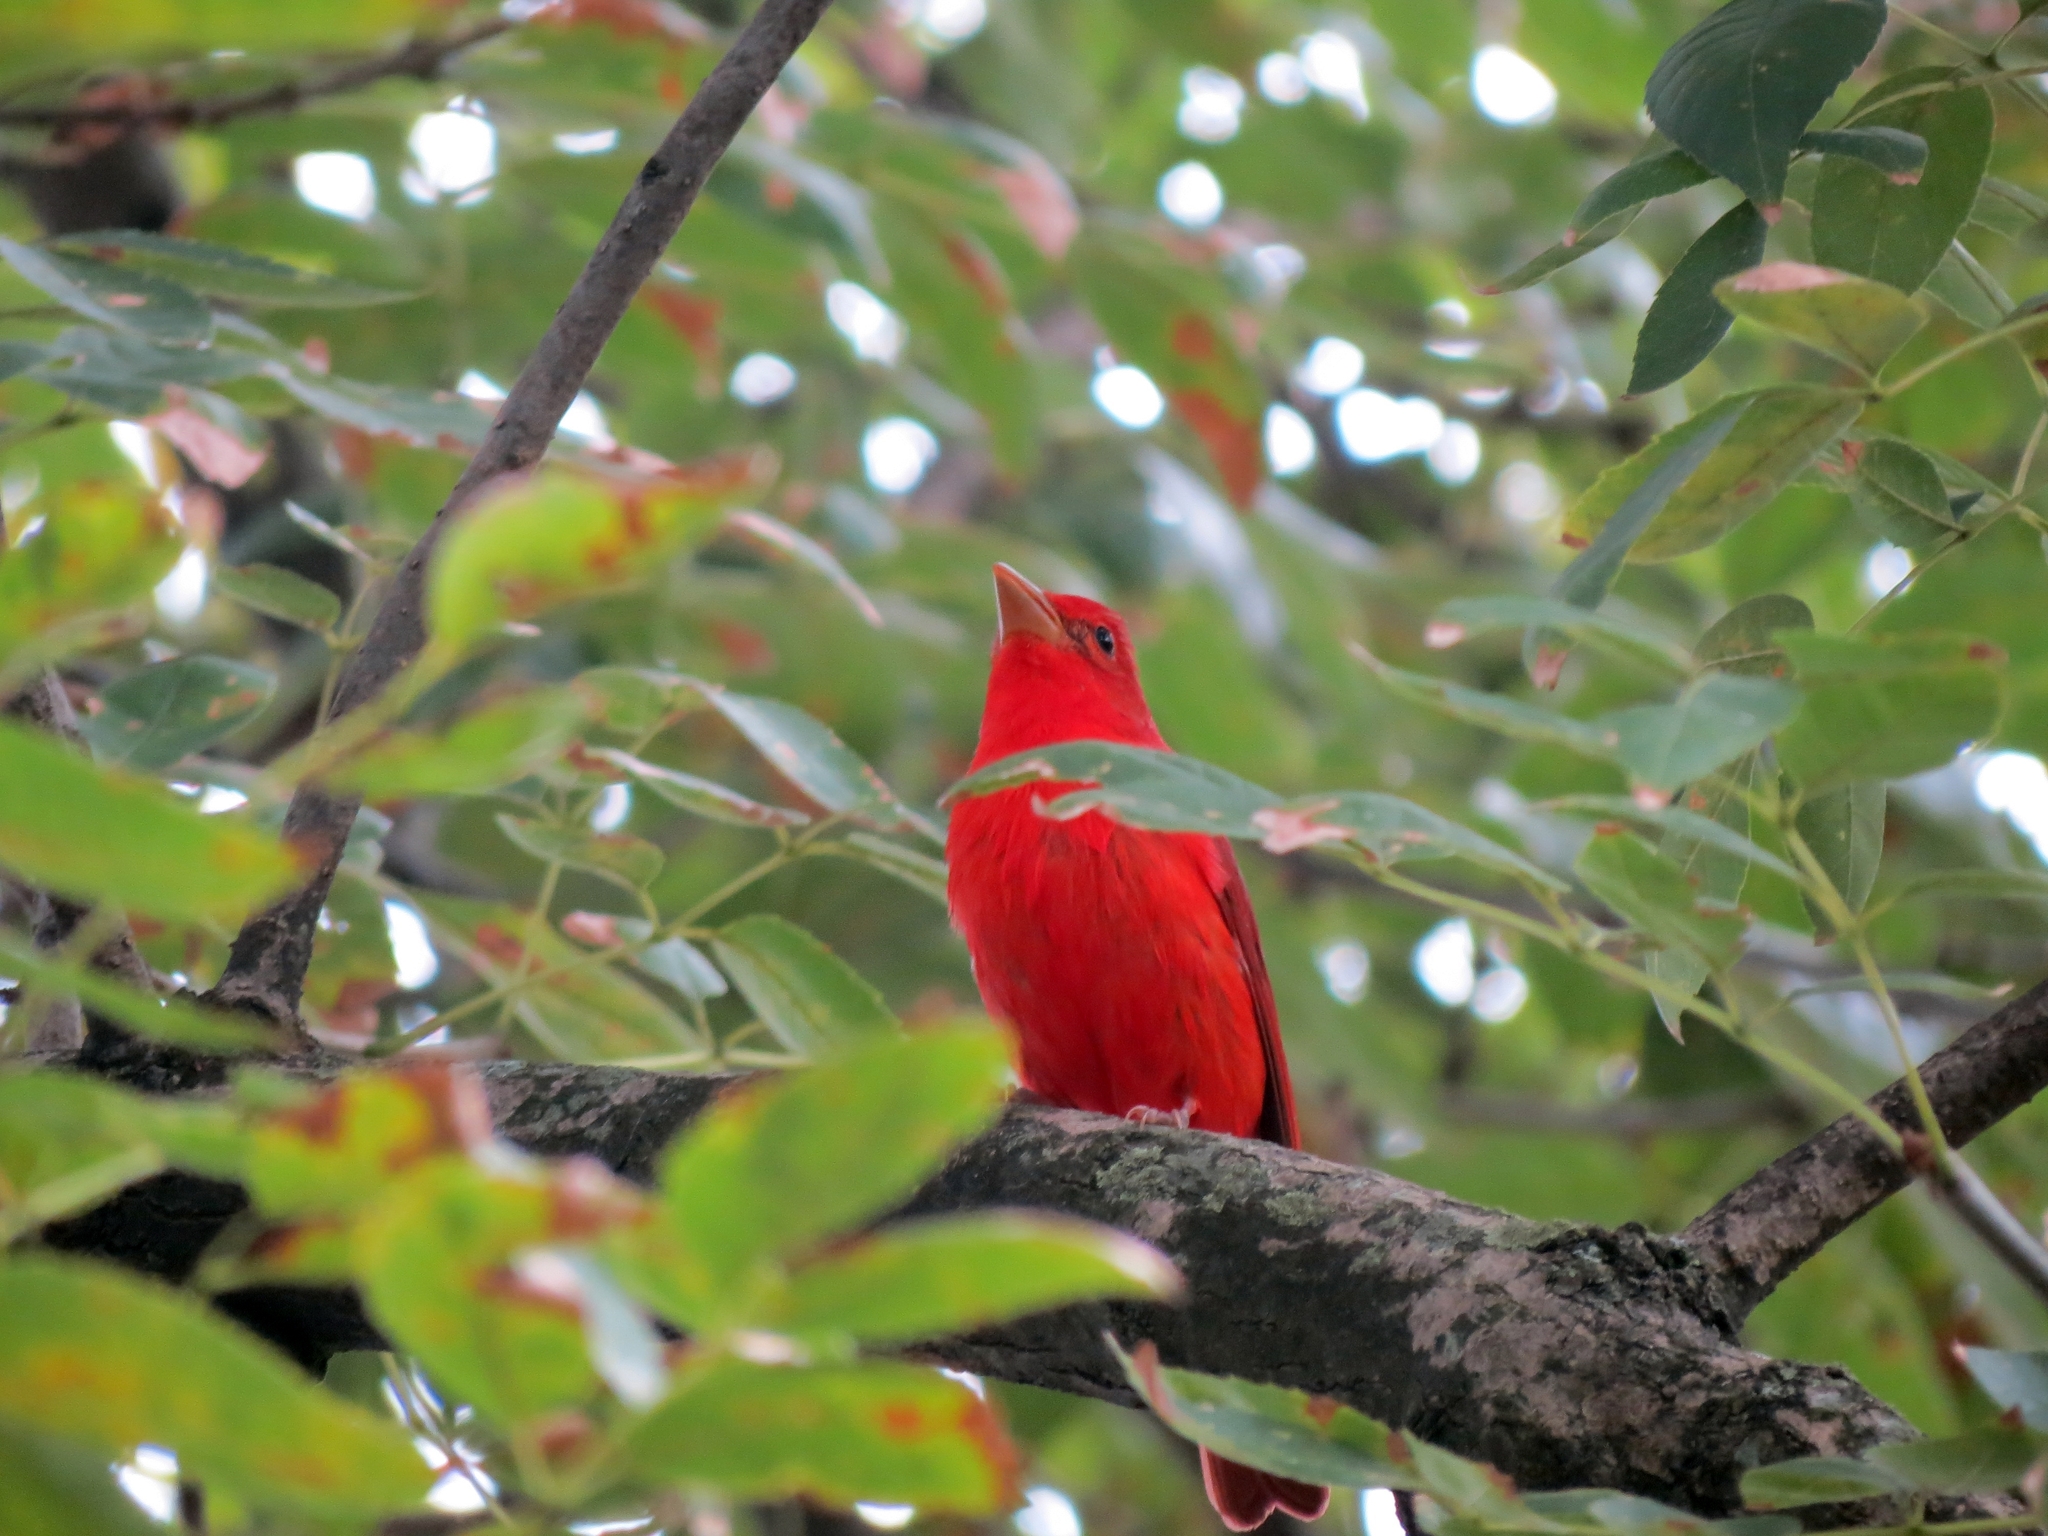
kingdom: Animalia
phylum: Chordata
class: Aves
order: Passeriformes
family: Cardinalidae
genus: Piranga
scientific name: Piranga rubra
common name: Summer tanager
